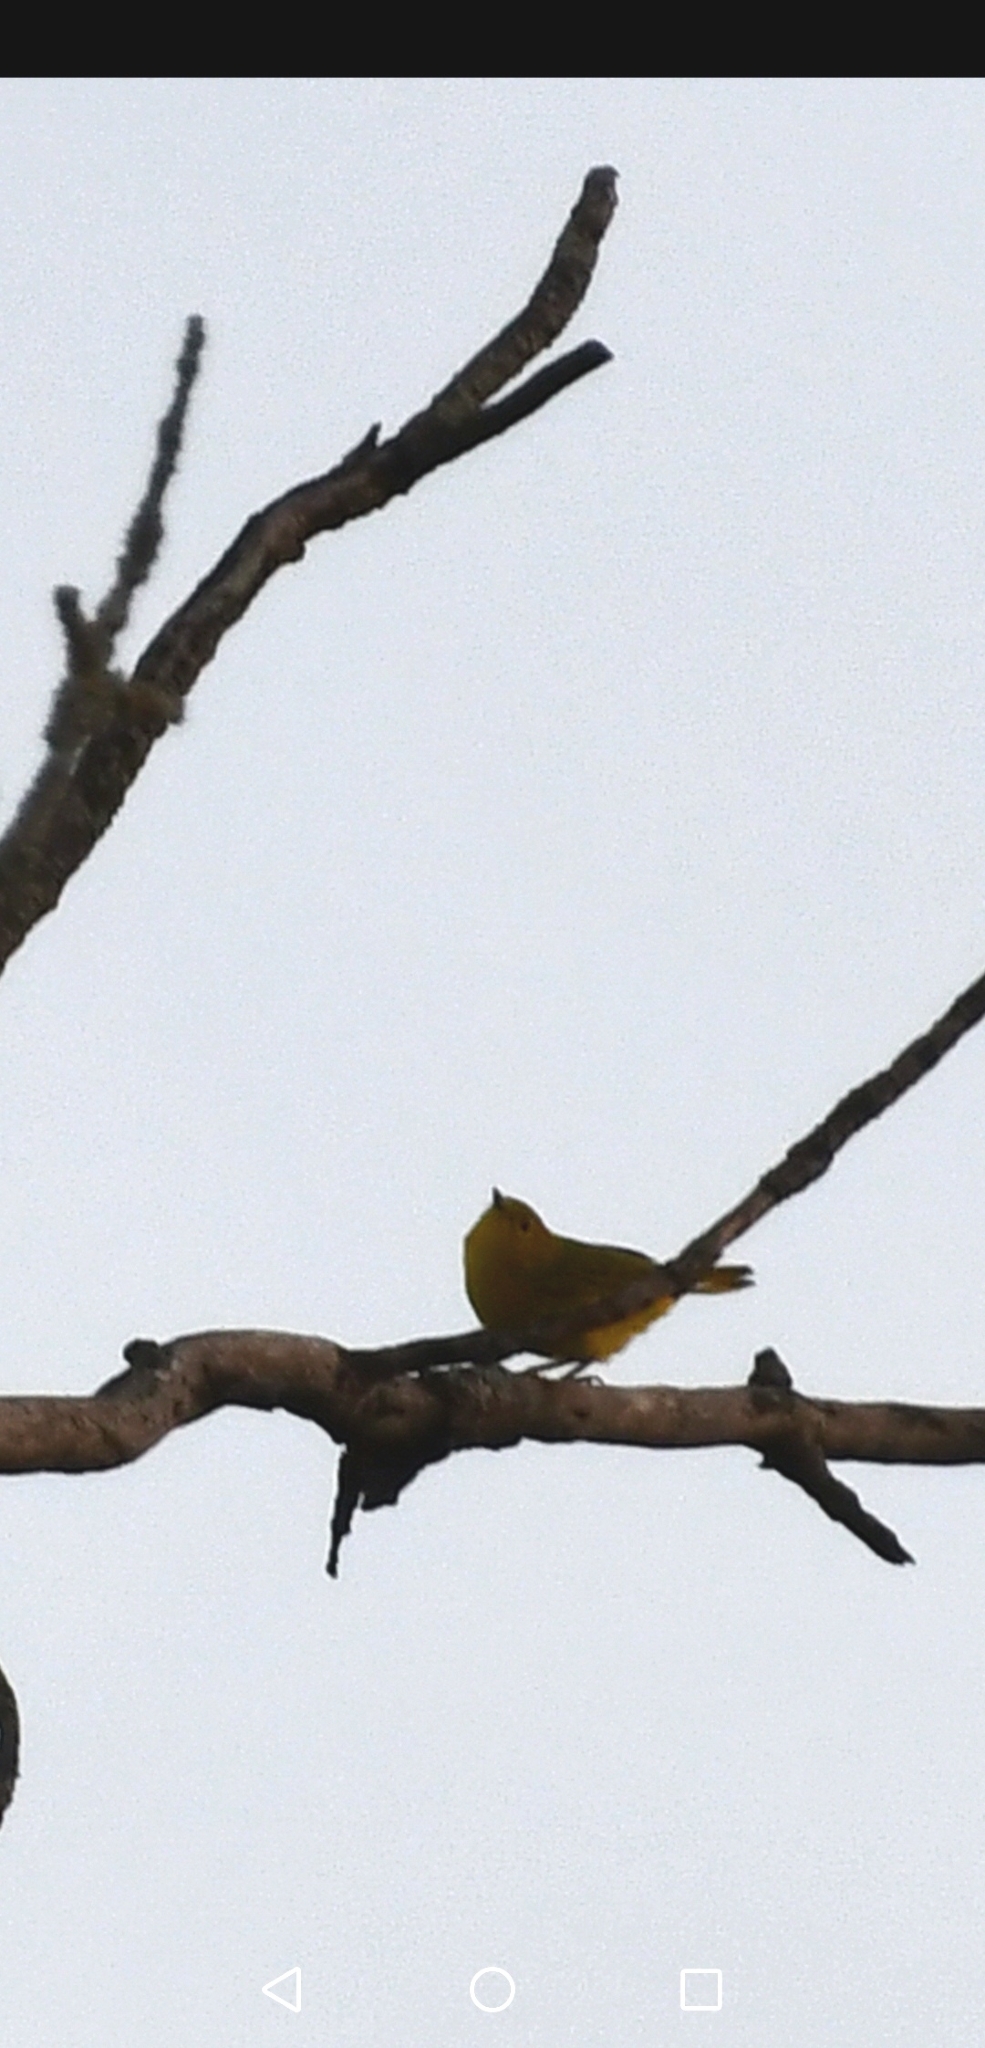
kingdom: Animalia
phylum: Chordata
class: Aves
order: Passeriformes
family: Parulidae
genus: Setophaga
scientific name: Setophaga petechia
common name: Yellow warbler
